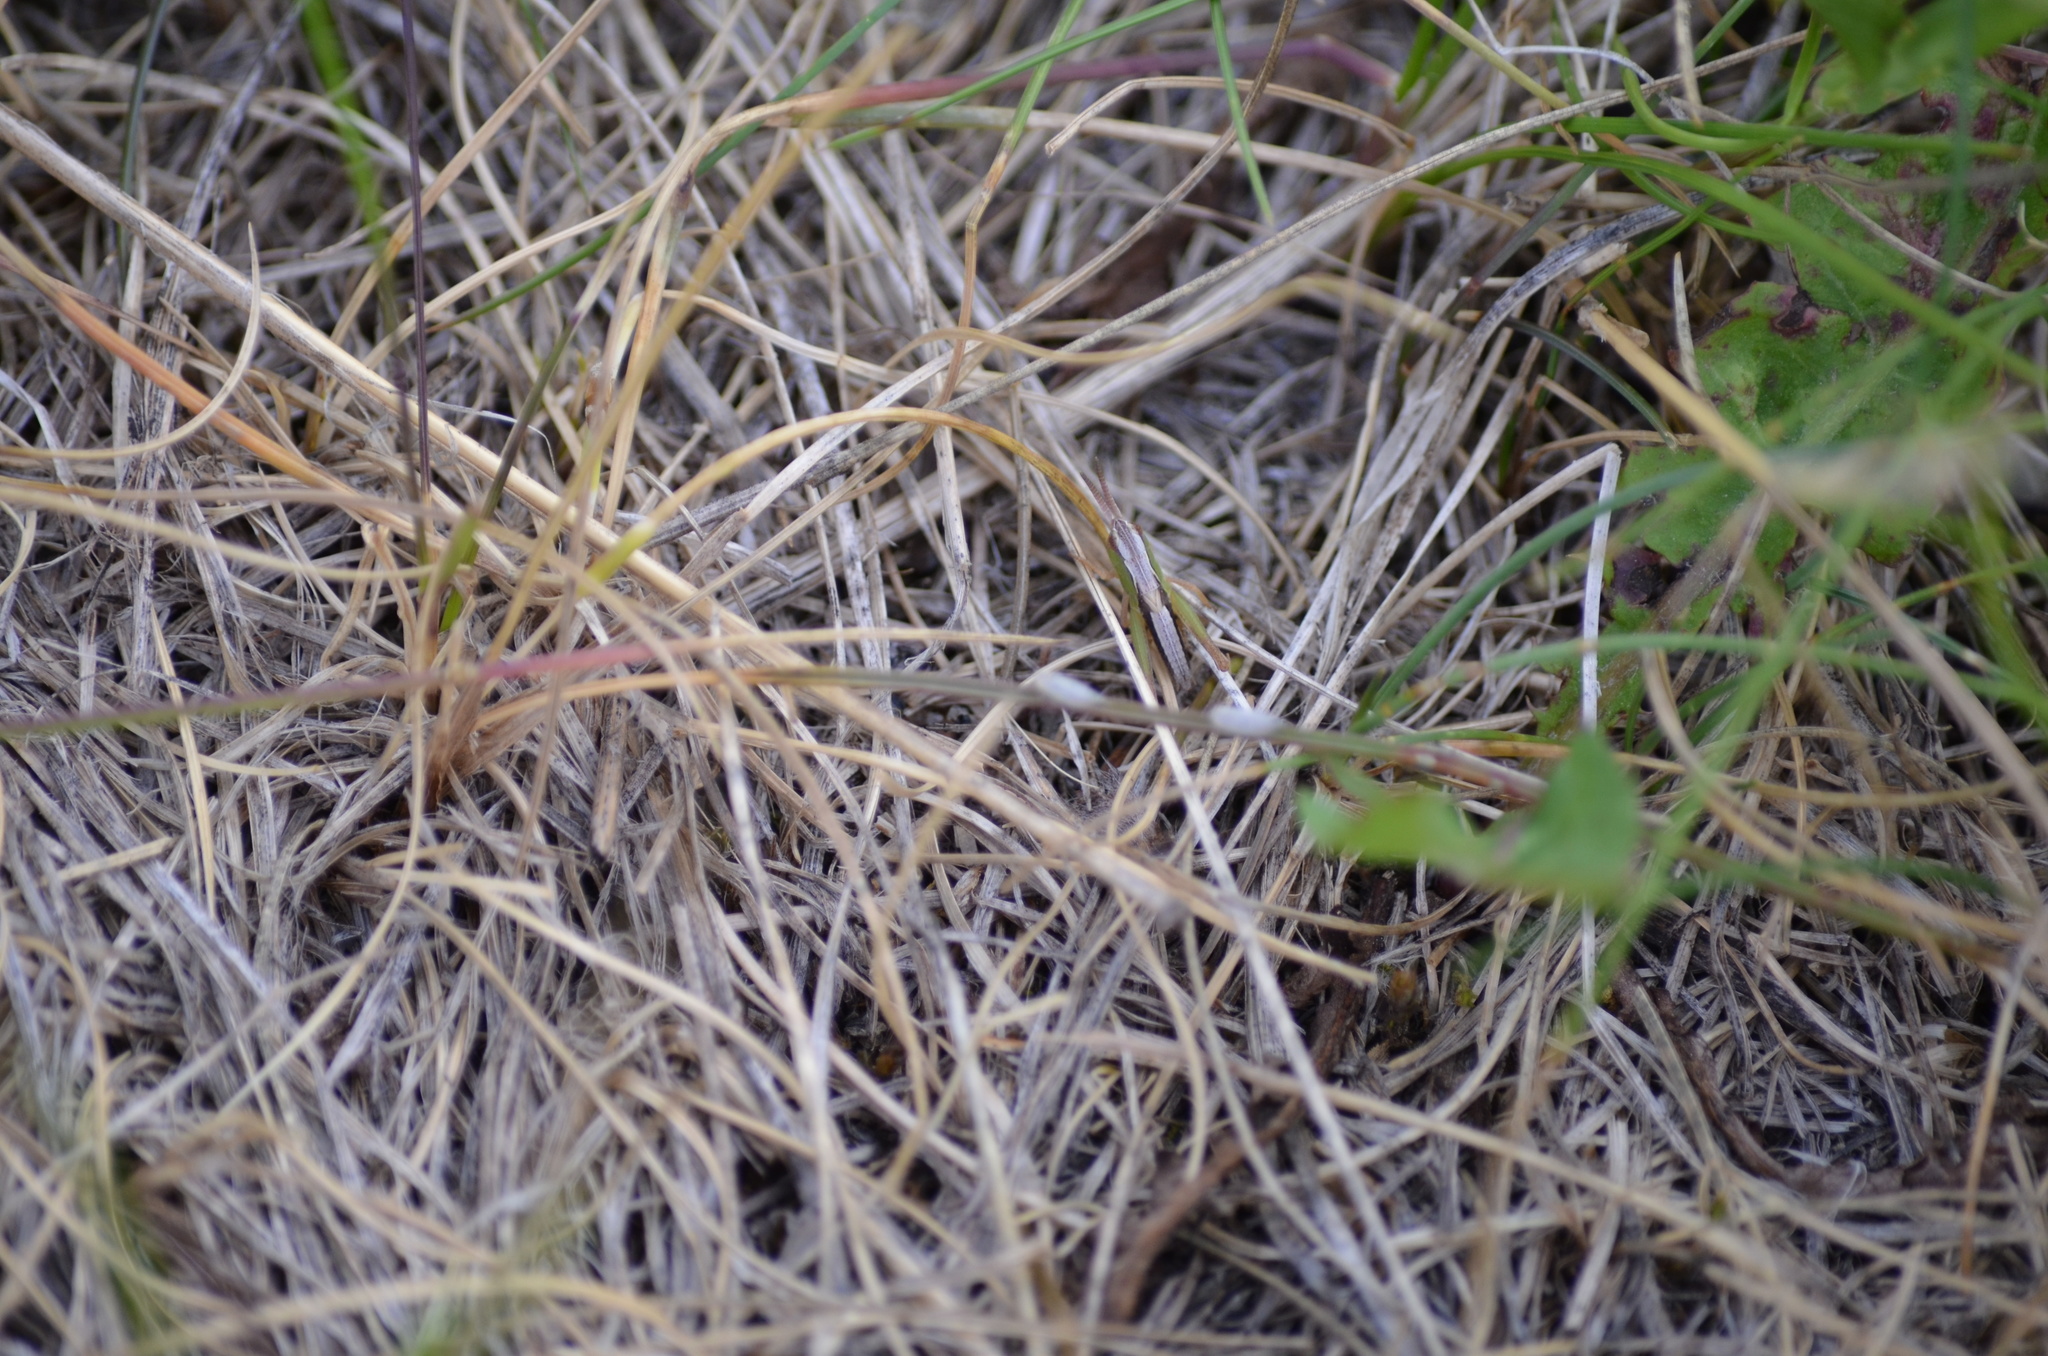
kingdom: Animalia
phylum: Arthropoda
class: Insecta
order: Orthoptera
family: Acrididae
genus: Pseudochorthippus
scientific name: Pseudochorthippus curtipennis
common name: Marsh meadow grasshopper
